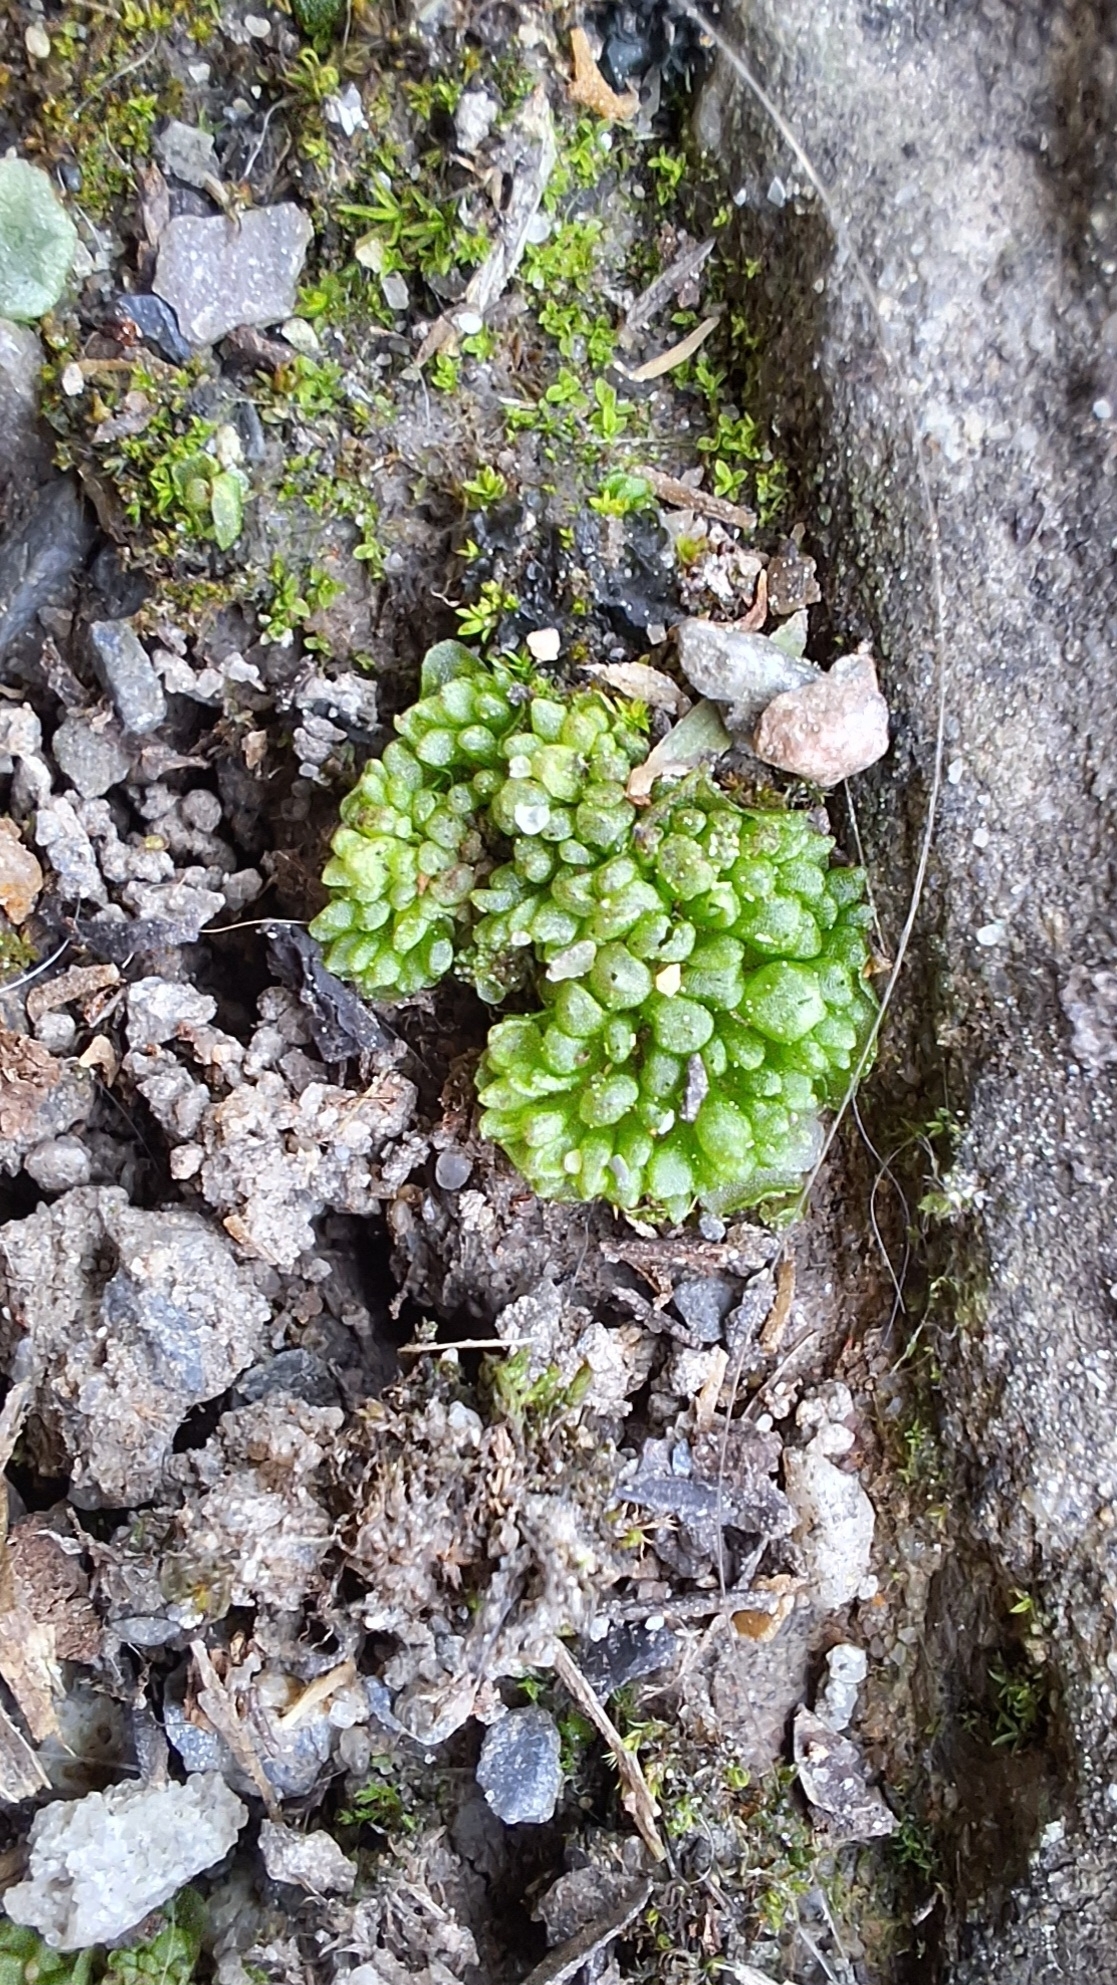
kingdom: Plantae
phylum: Marchantiophyta
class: Marchantiopsida
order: Sphaerocarpales
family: Sphaerocarpaceae
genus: Sphaerocarpos
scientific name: Sphaerocarpos texanus
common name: Texas balloonwort
